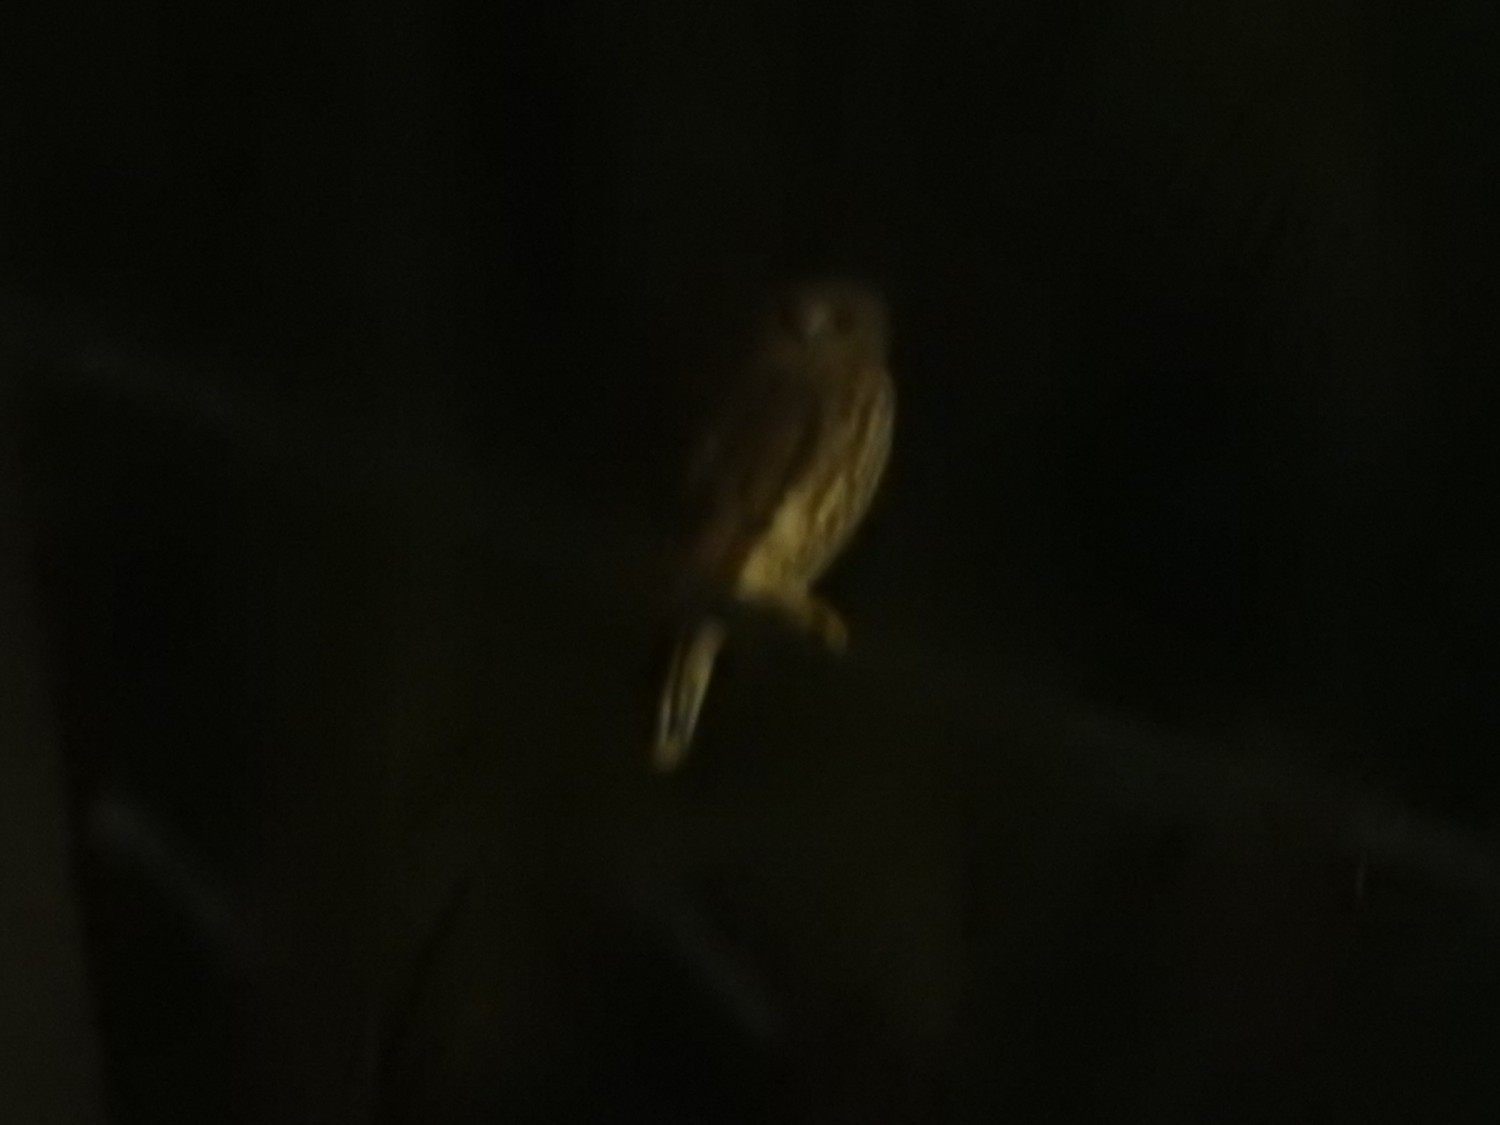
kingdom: Animalia
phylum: Chordata
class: Aves
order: Strigiformes
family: Strigidae
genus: Ninox
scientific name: Ninox scutulata
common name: Brown hawk-owl
